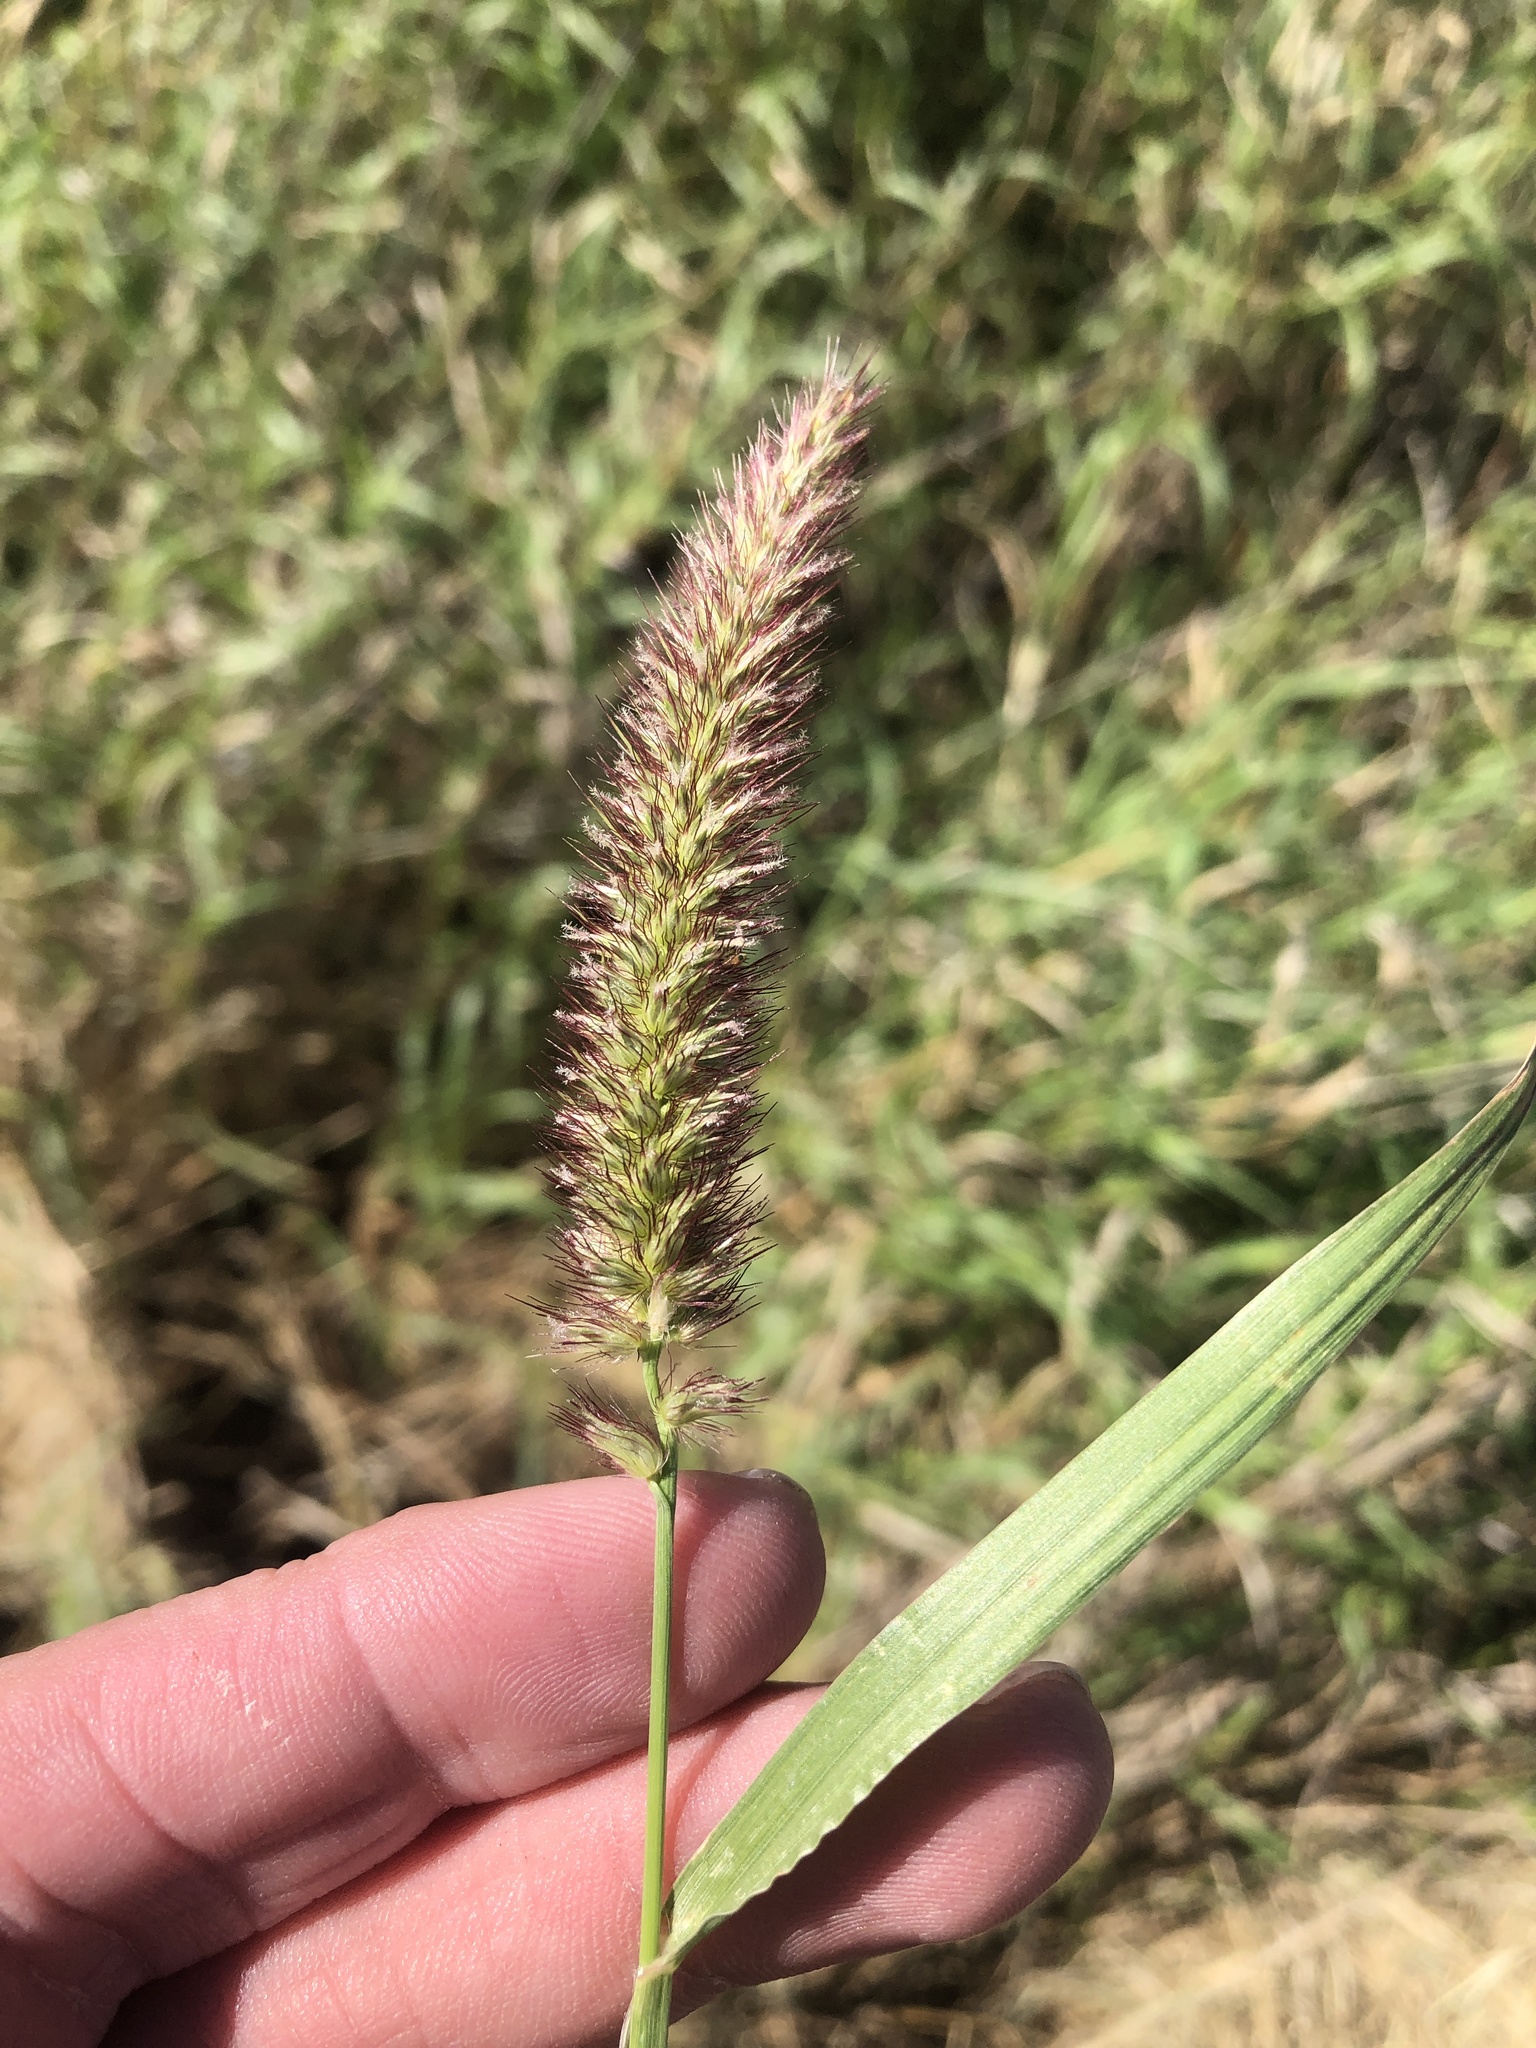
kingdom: Plantae
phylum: Tracheophyta
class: Liliopsida
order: Poales
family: Poaceae
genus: Cenchrus
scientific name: Cenchrus ciliaris
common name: Buffelgrass
